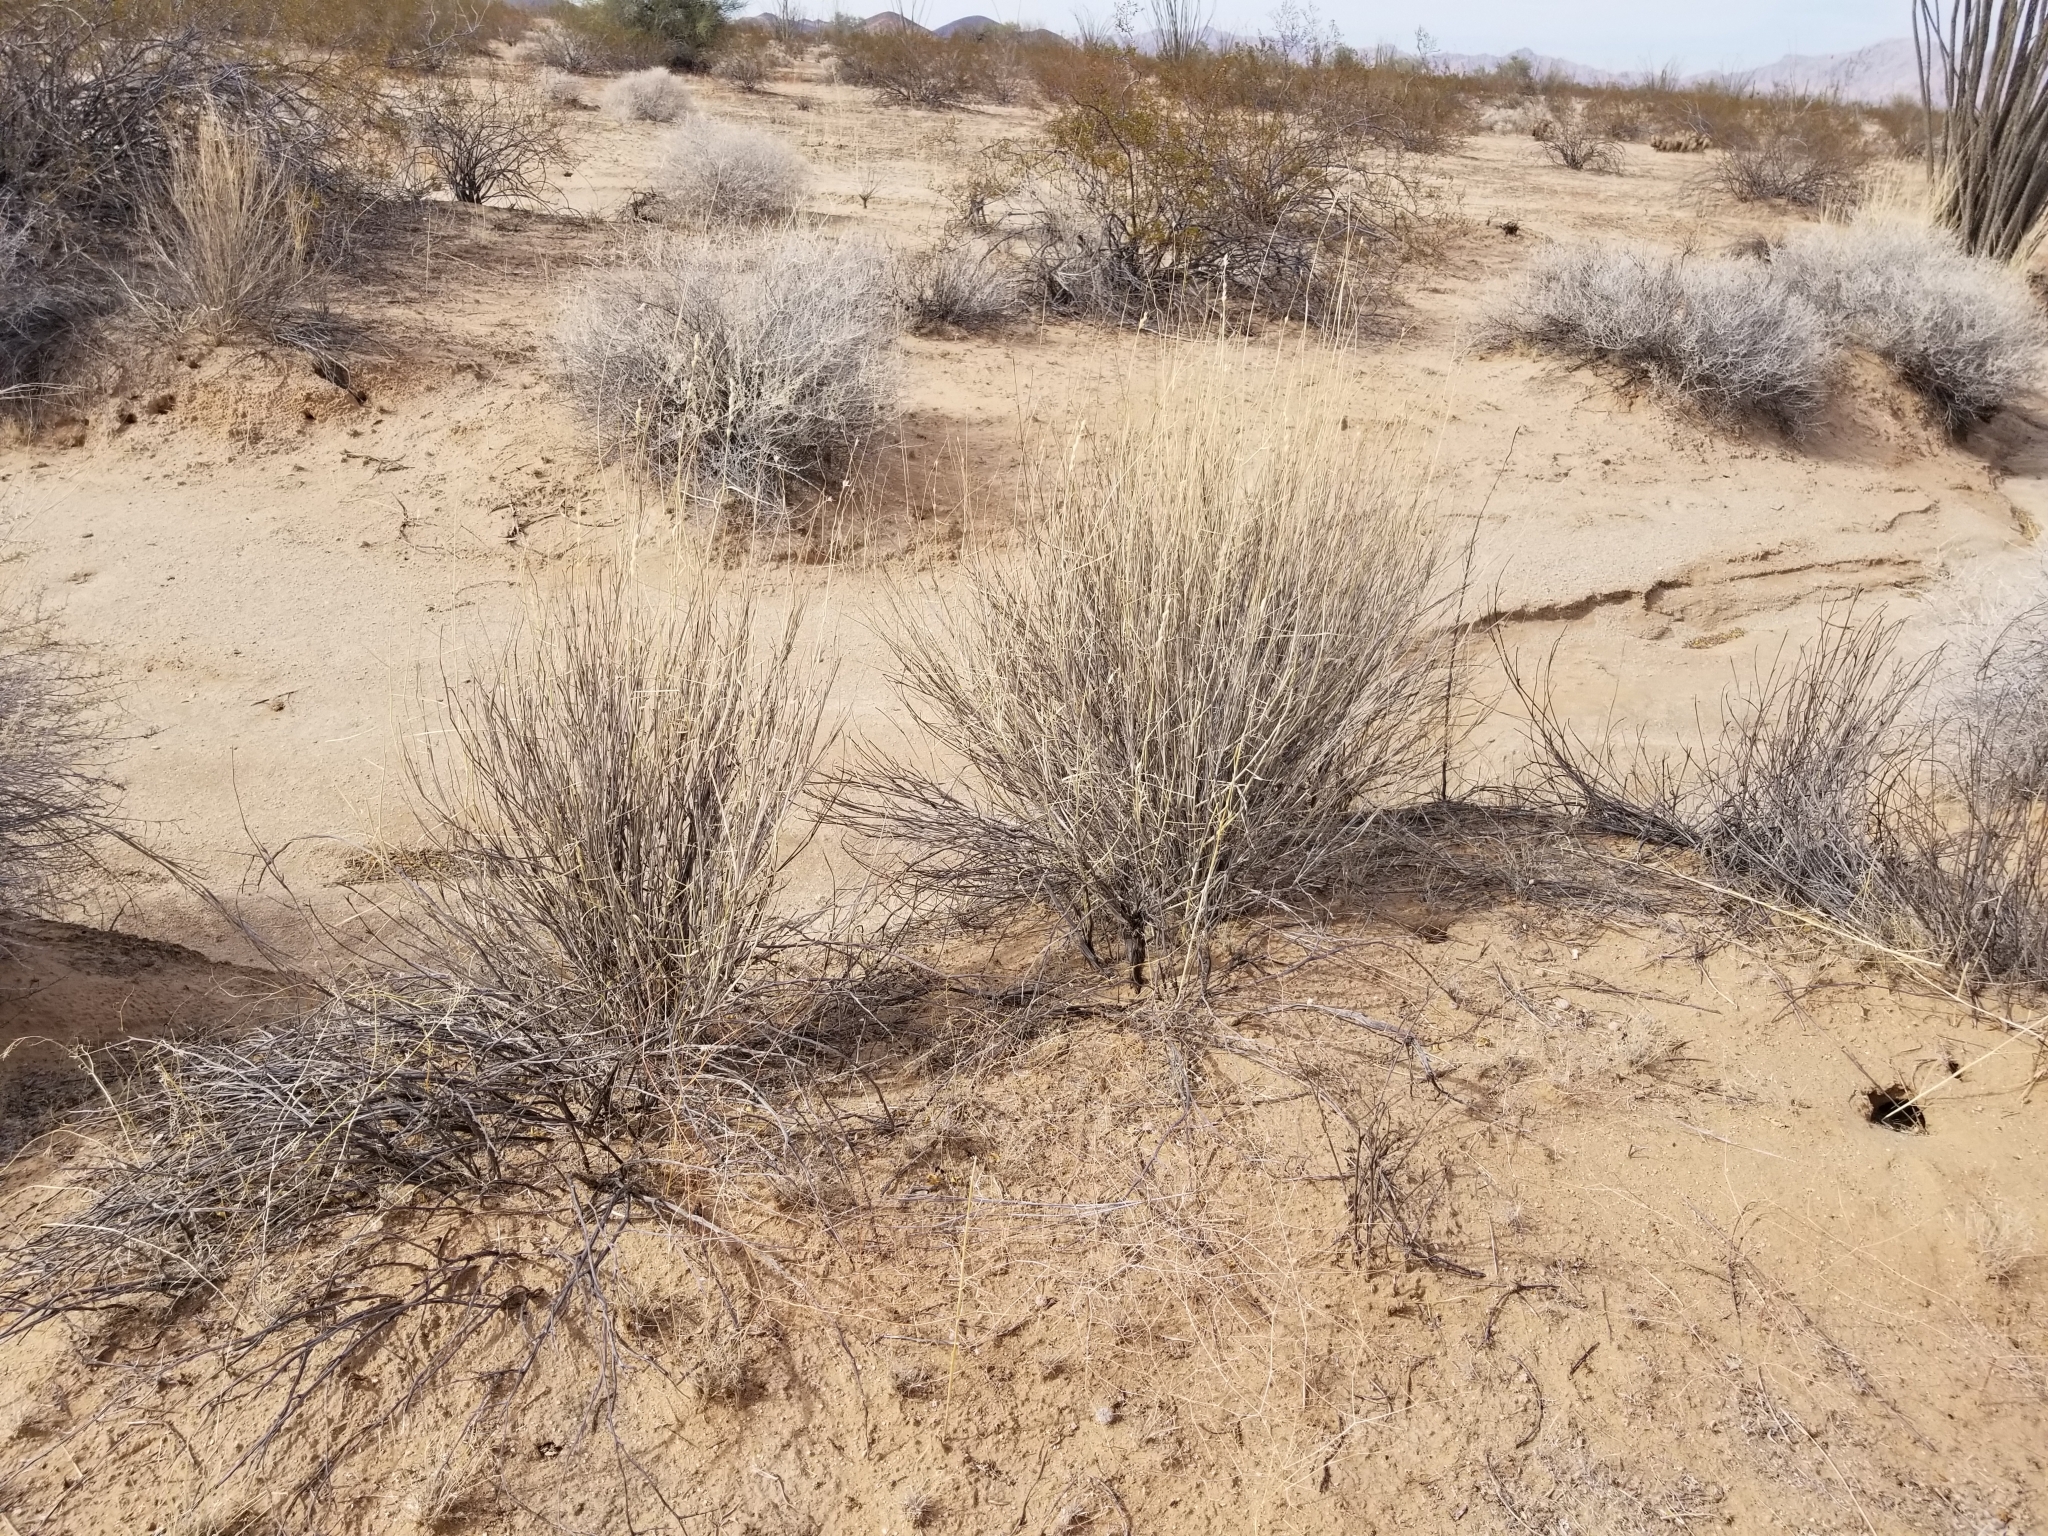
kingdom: Plantae
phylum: Tracheophyta
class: Liliopsida
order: Poales
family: Poaceae
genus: Hilaria
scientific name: Hilaria rigida
